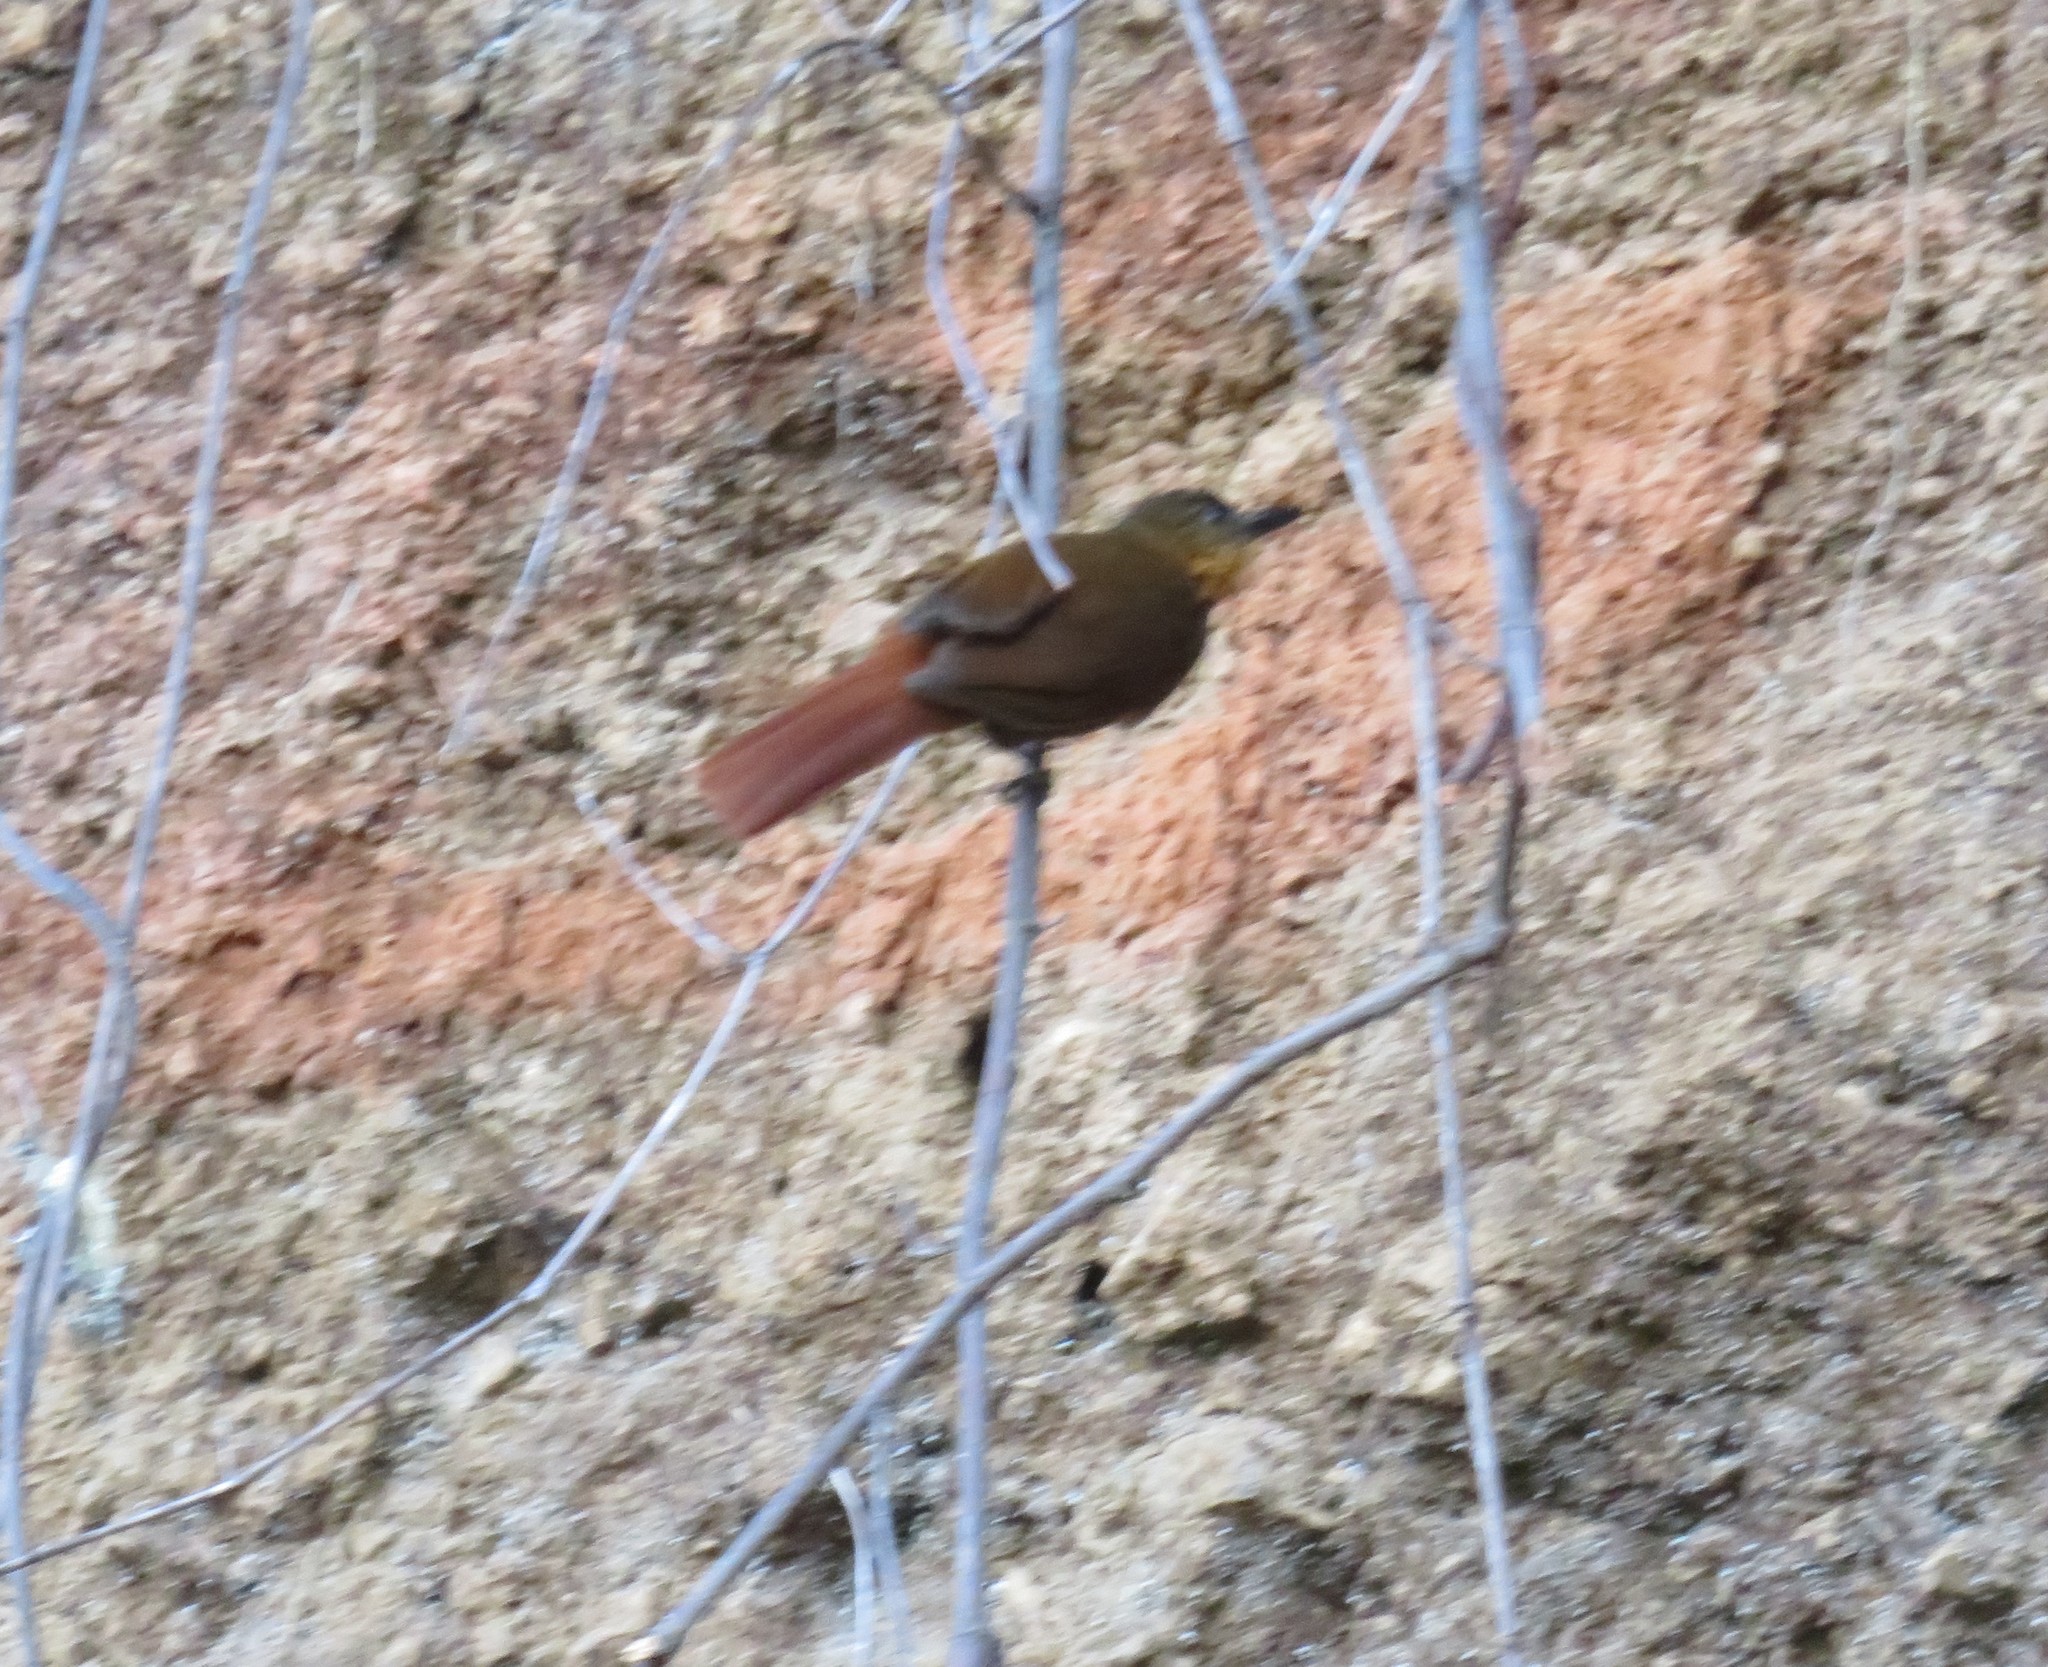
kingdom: Animalia
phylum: Chordata
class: Aves
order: Passeriformes
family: Furnariidae
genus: Thripadectes
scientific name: Thripadectes rufobrunneus
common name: Streak-breasted treehunter
